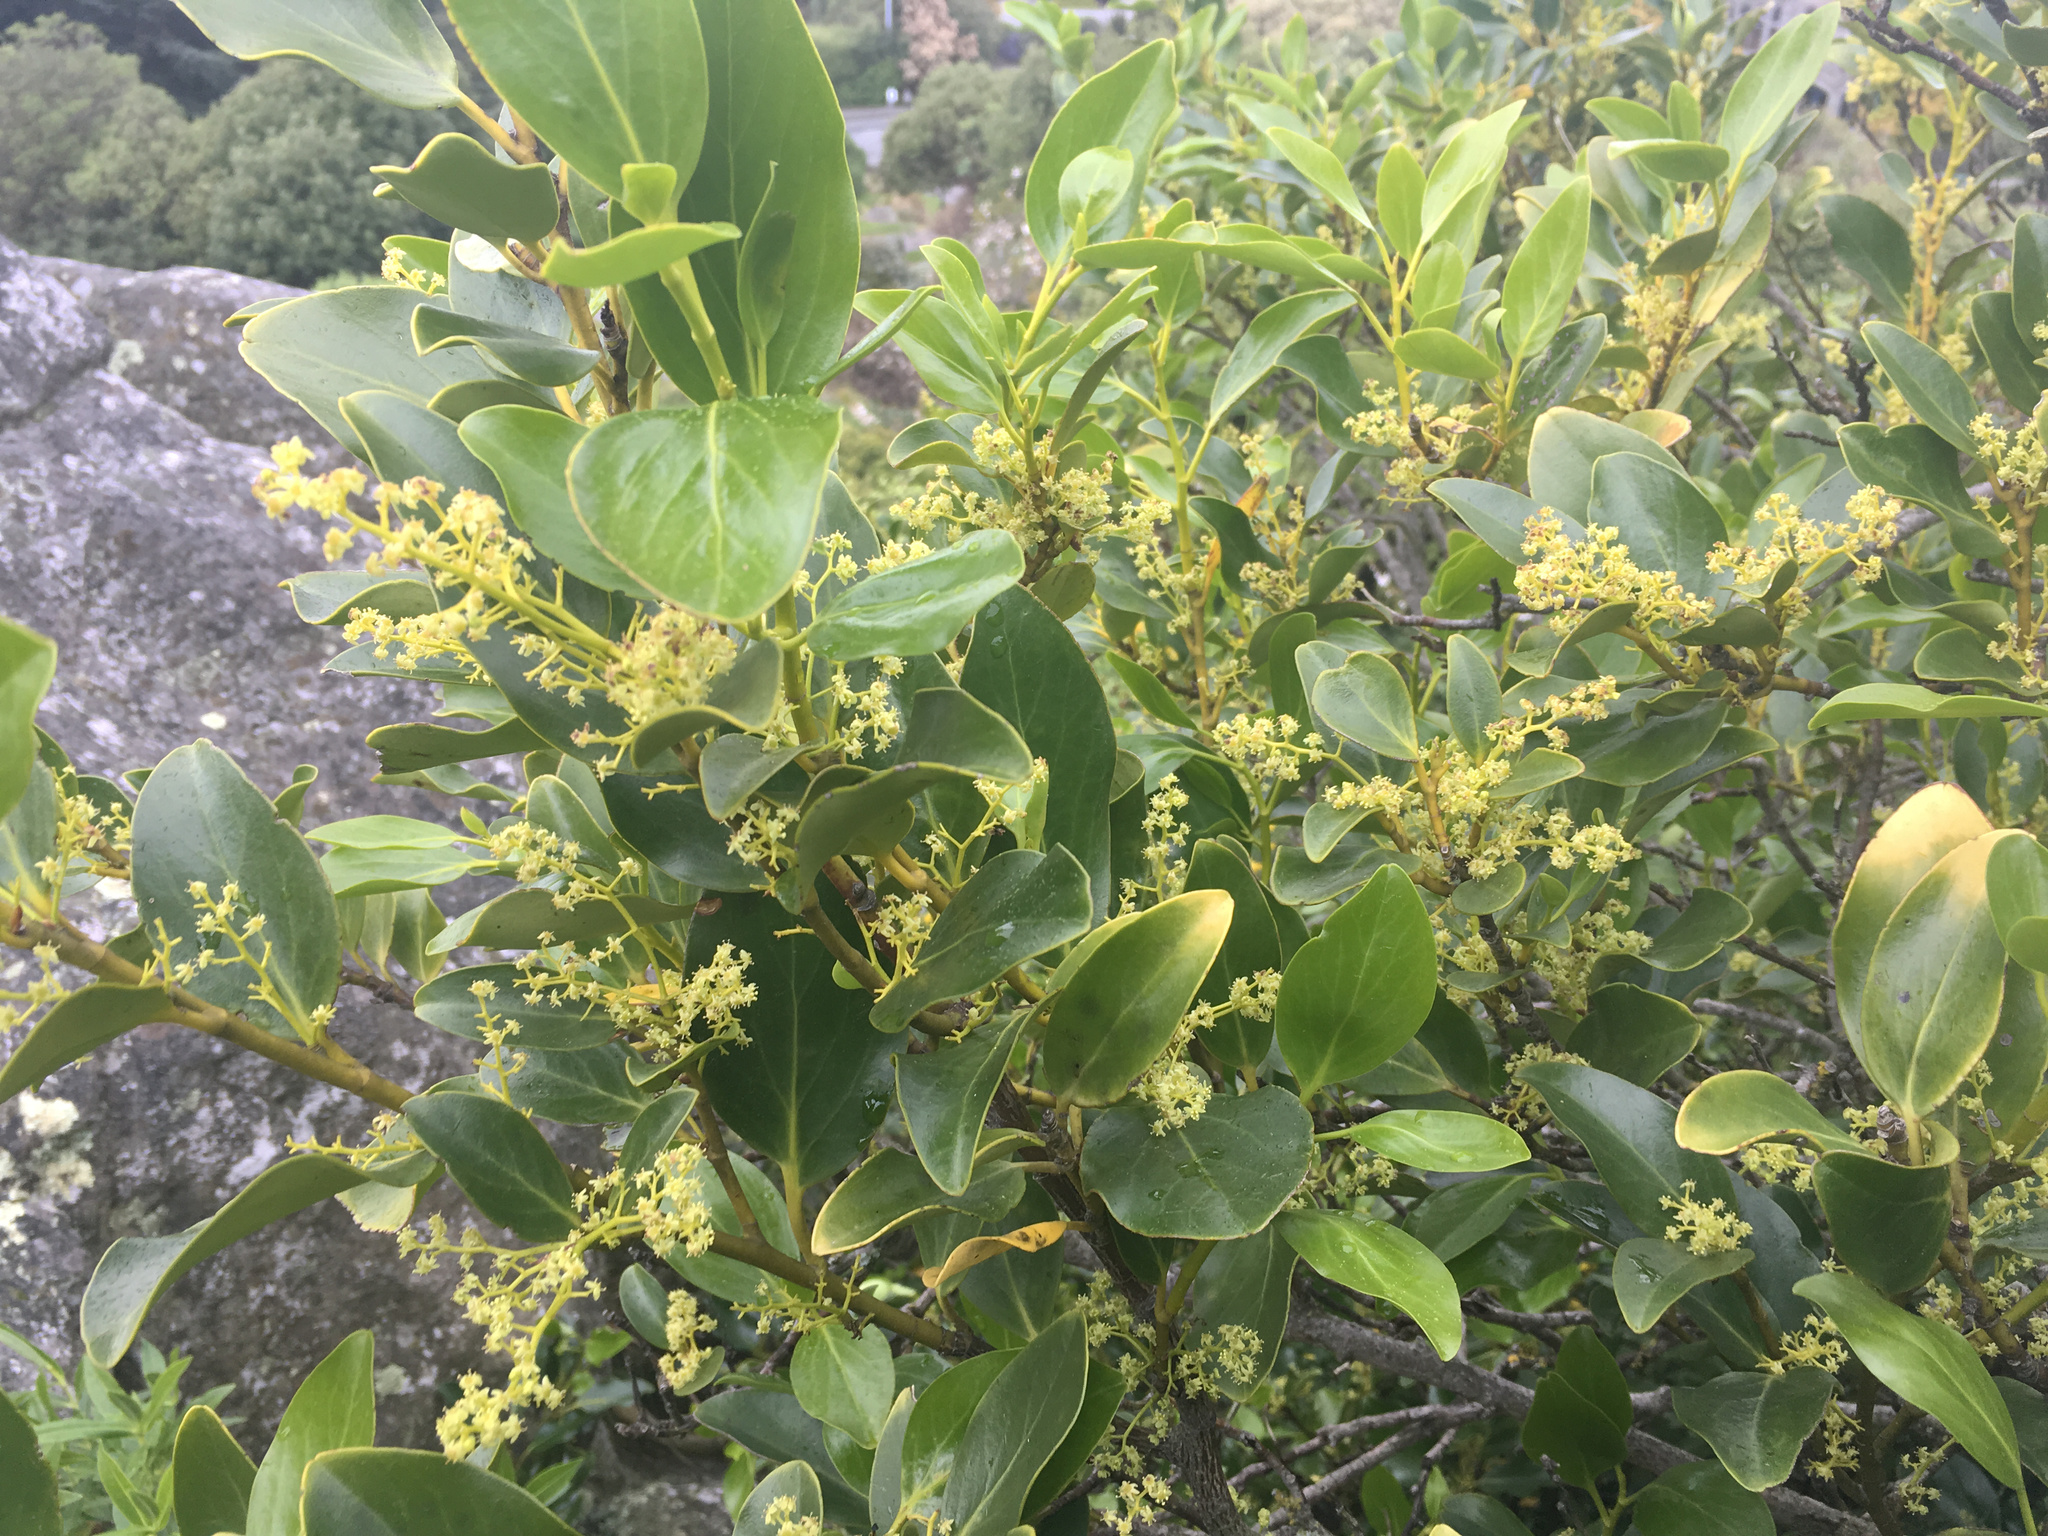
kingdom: Plantae
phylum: Tracheophyta
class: Magnoliopsida
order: Apiales
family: Griseliniaceae
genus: Griselinia
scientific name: Griselinia littoralis
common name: New zealand broadleaf
